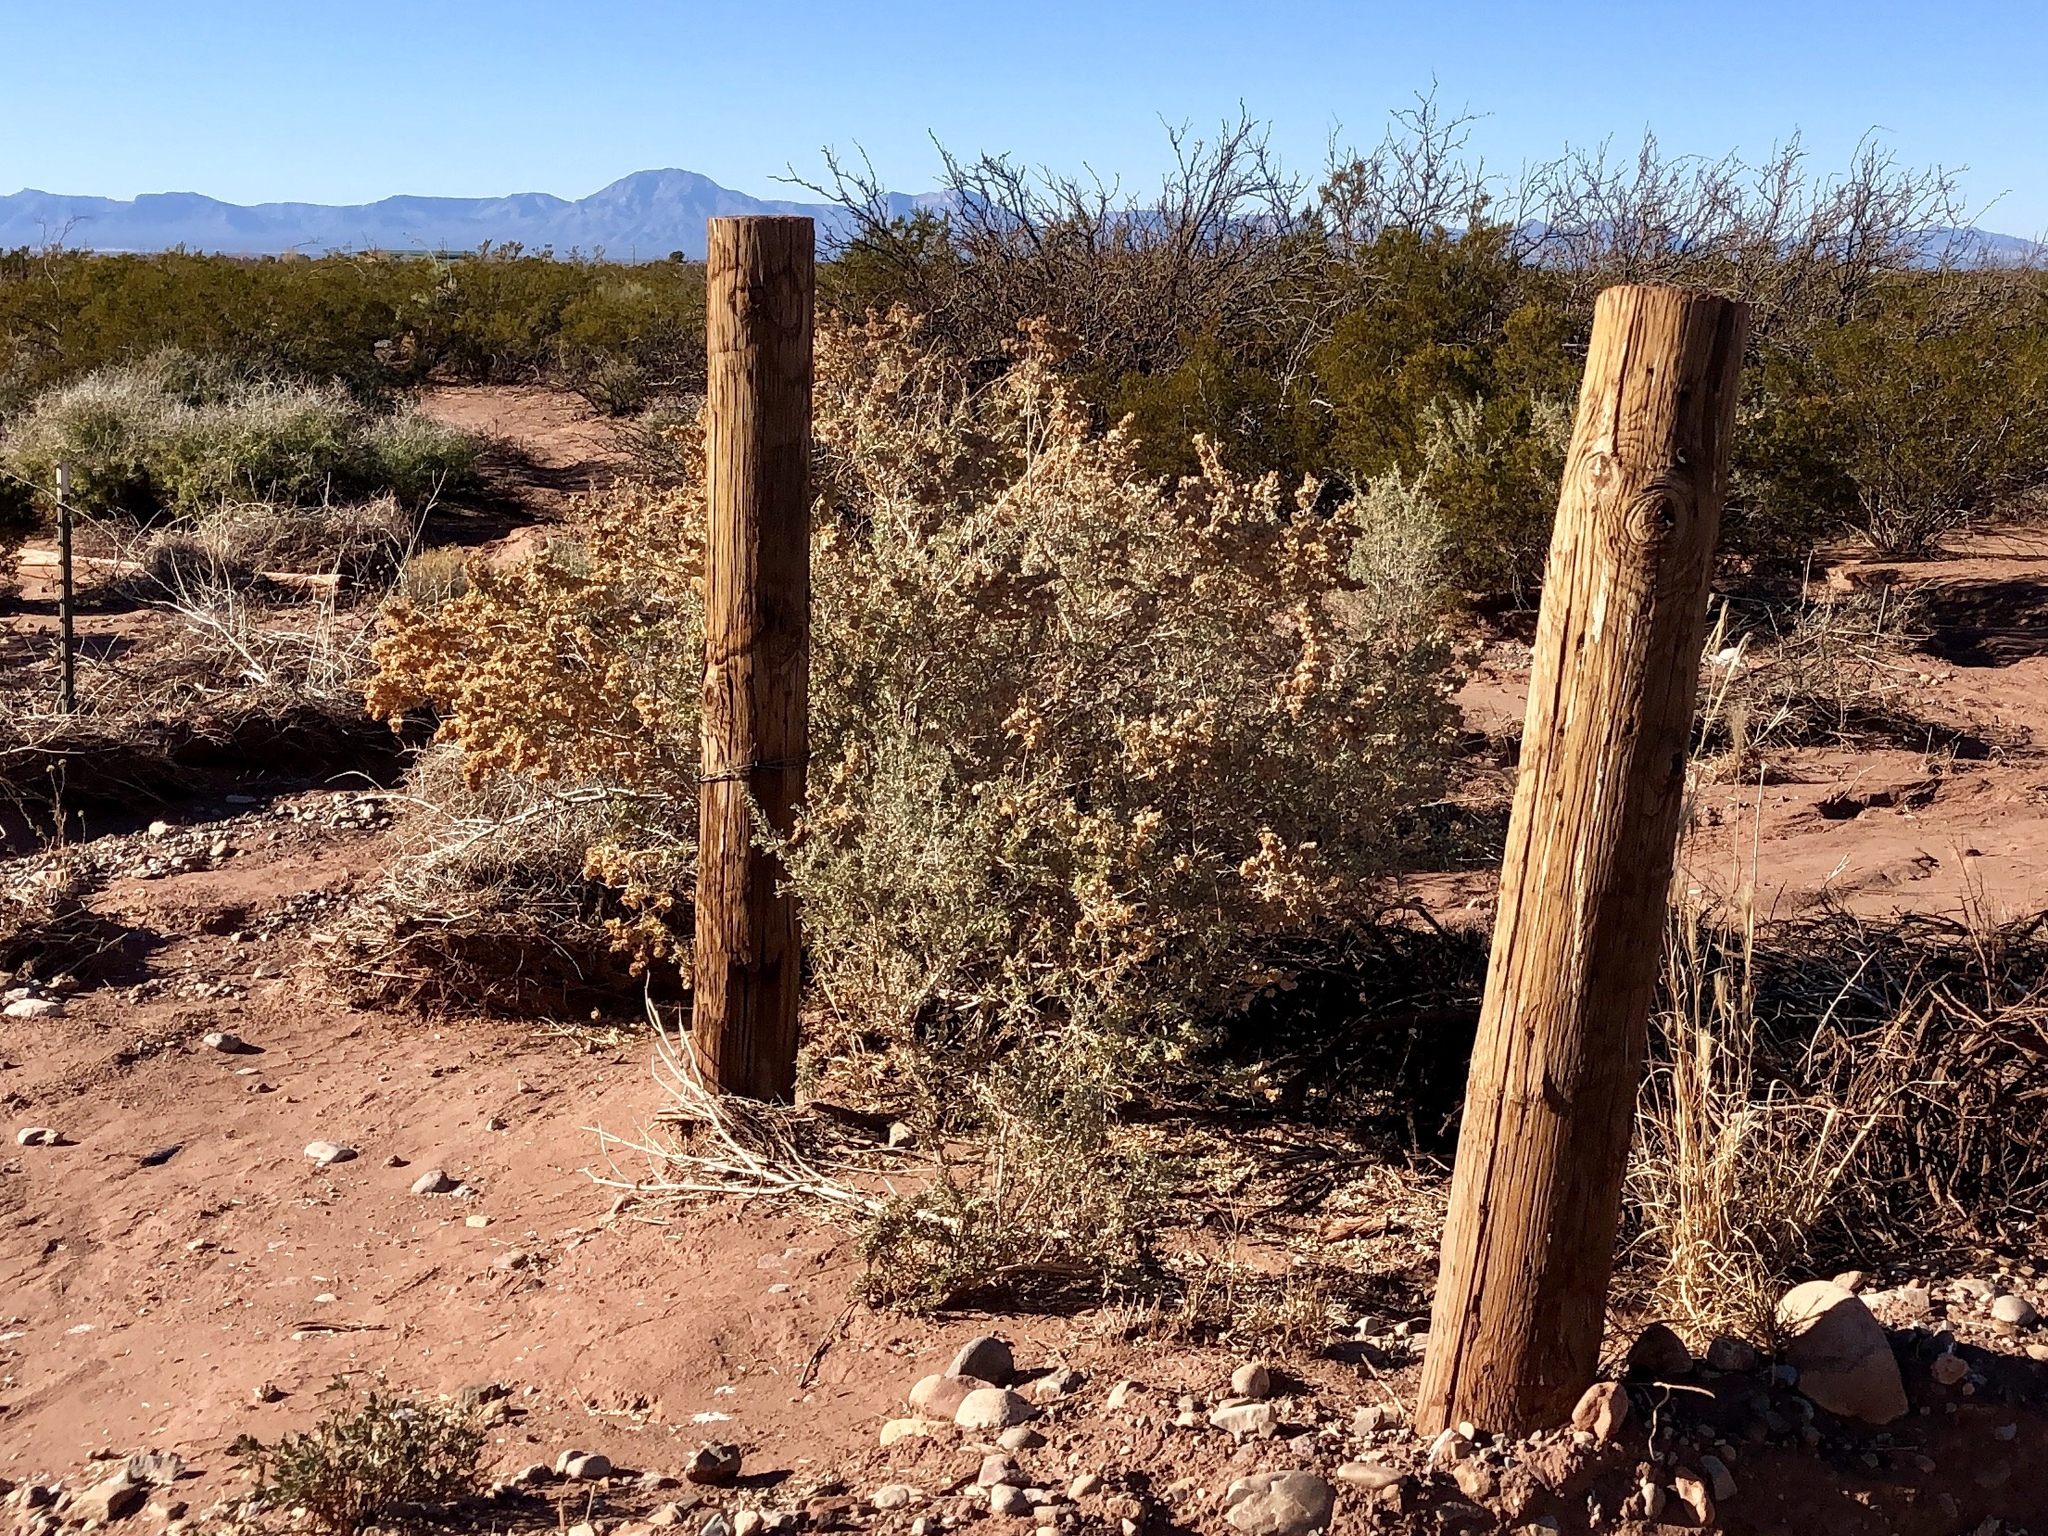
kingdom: Plantae
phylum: Tracheophyta
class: Magnoliopsida
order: Caryophyllales
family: Amaranthaceae
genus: Atriplex
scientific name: Atriplex canescens
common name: Four-wing saltbush
